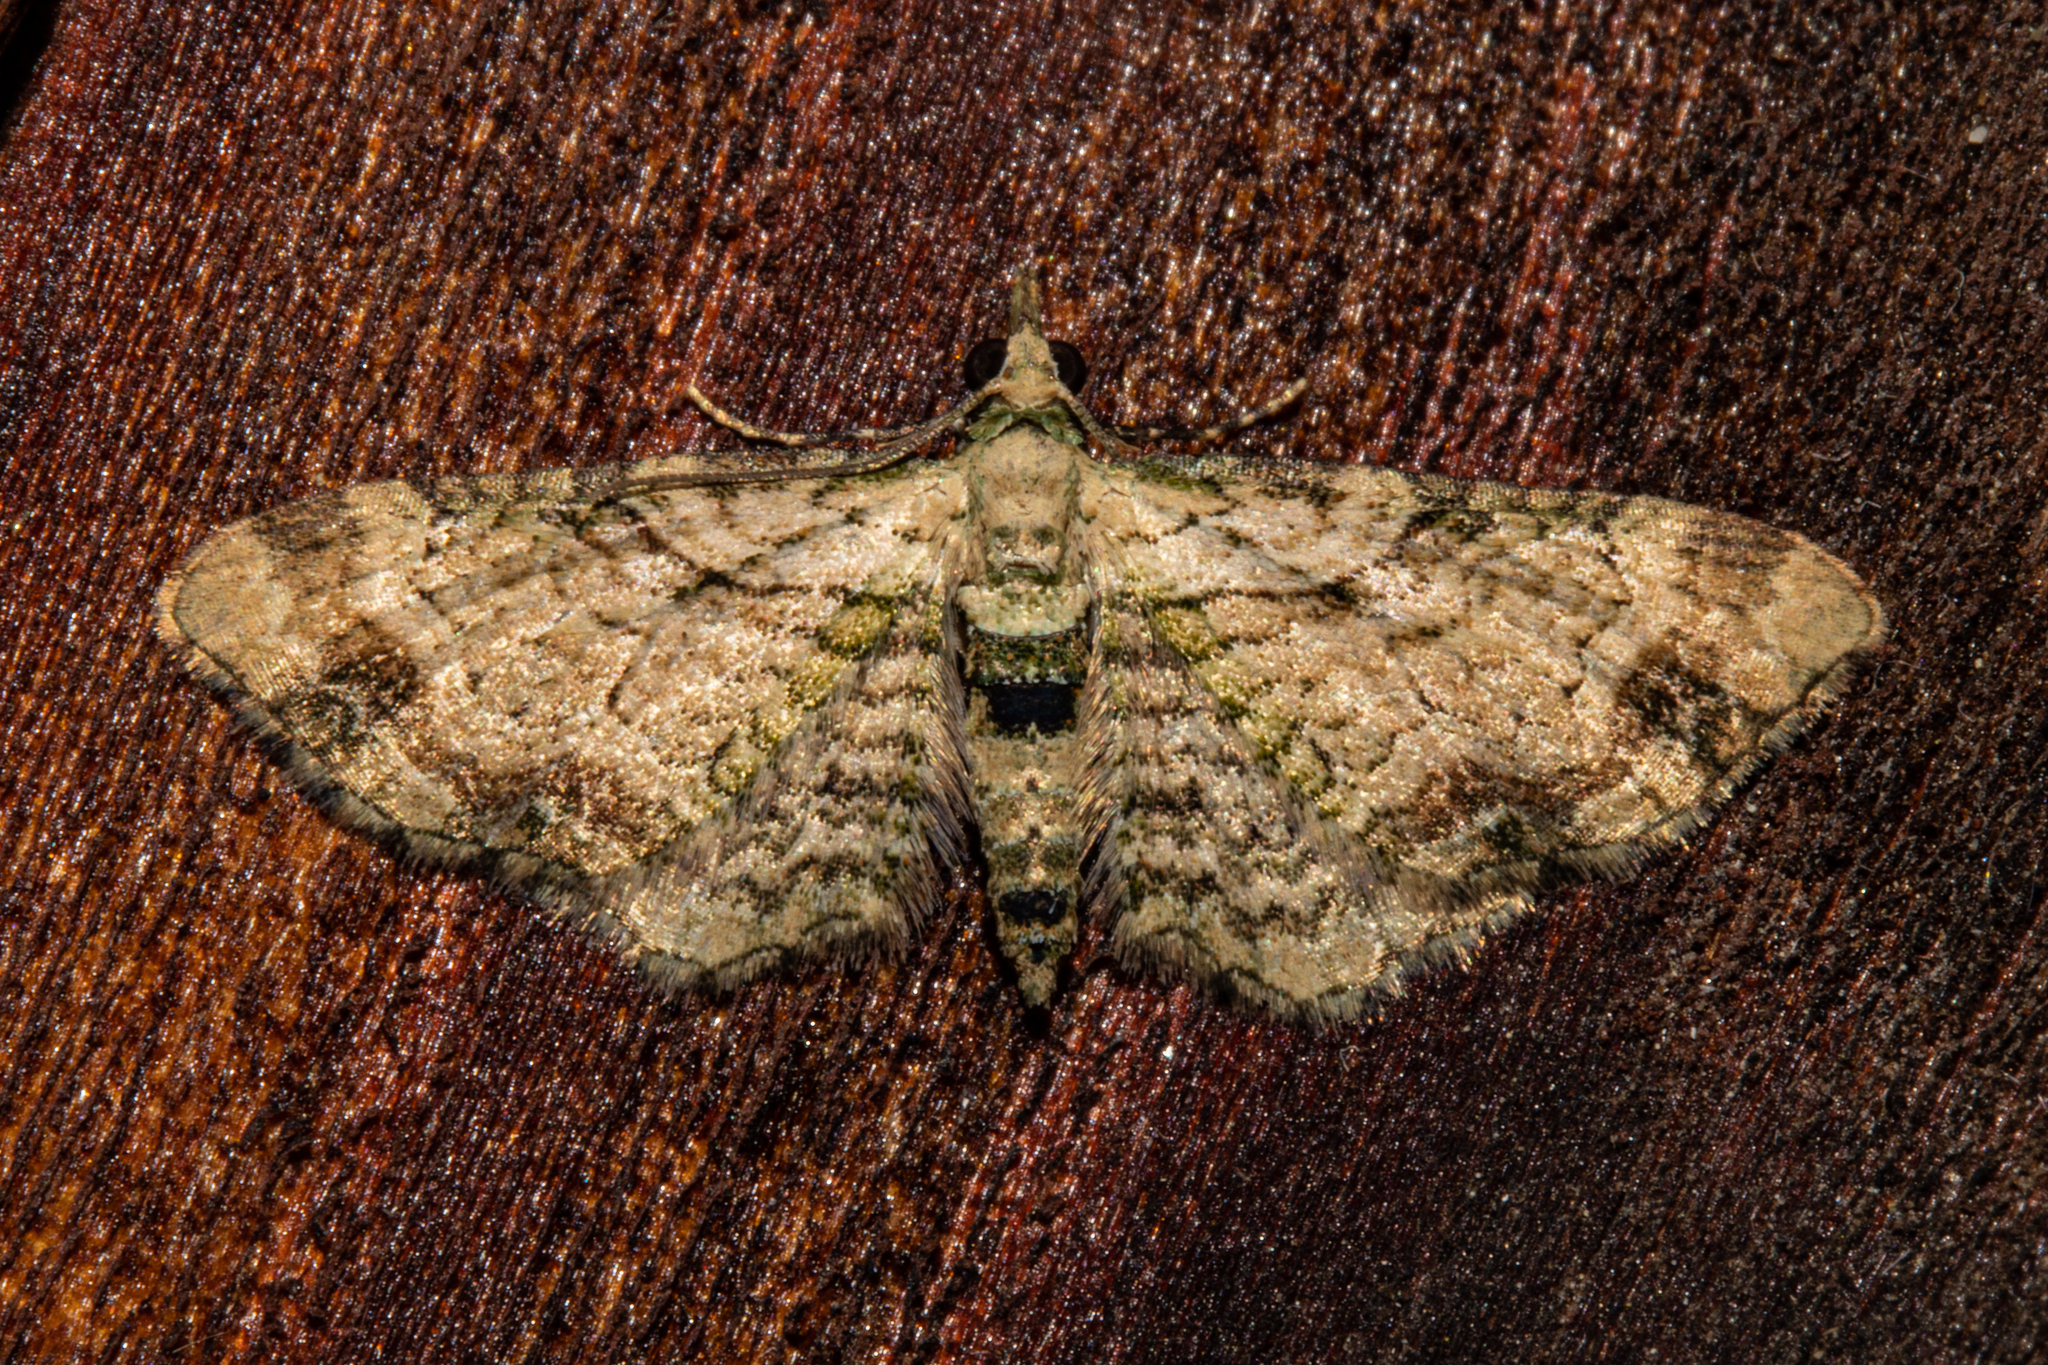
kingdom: Animalia
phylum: Arthropoda
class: Insecta
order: Lepidoptera
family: Geometridae
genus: Chloroclystis
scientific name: Chloroclystis
